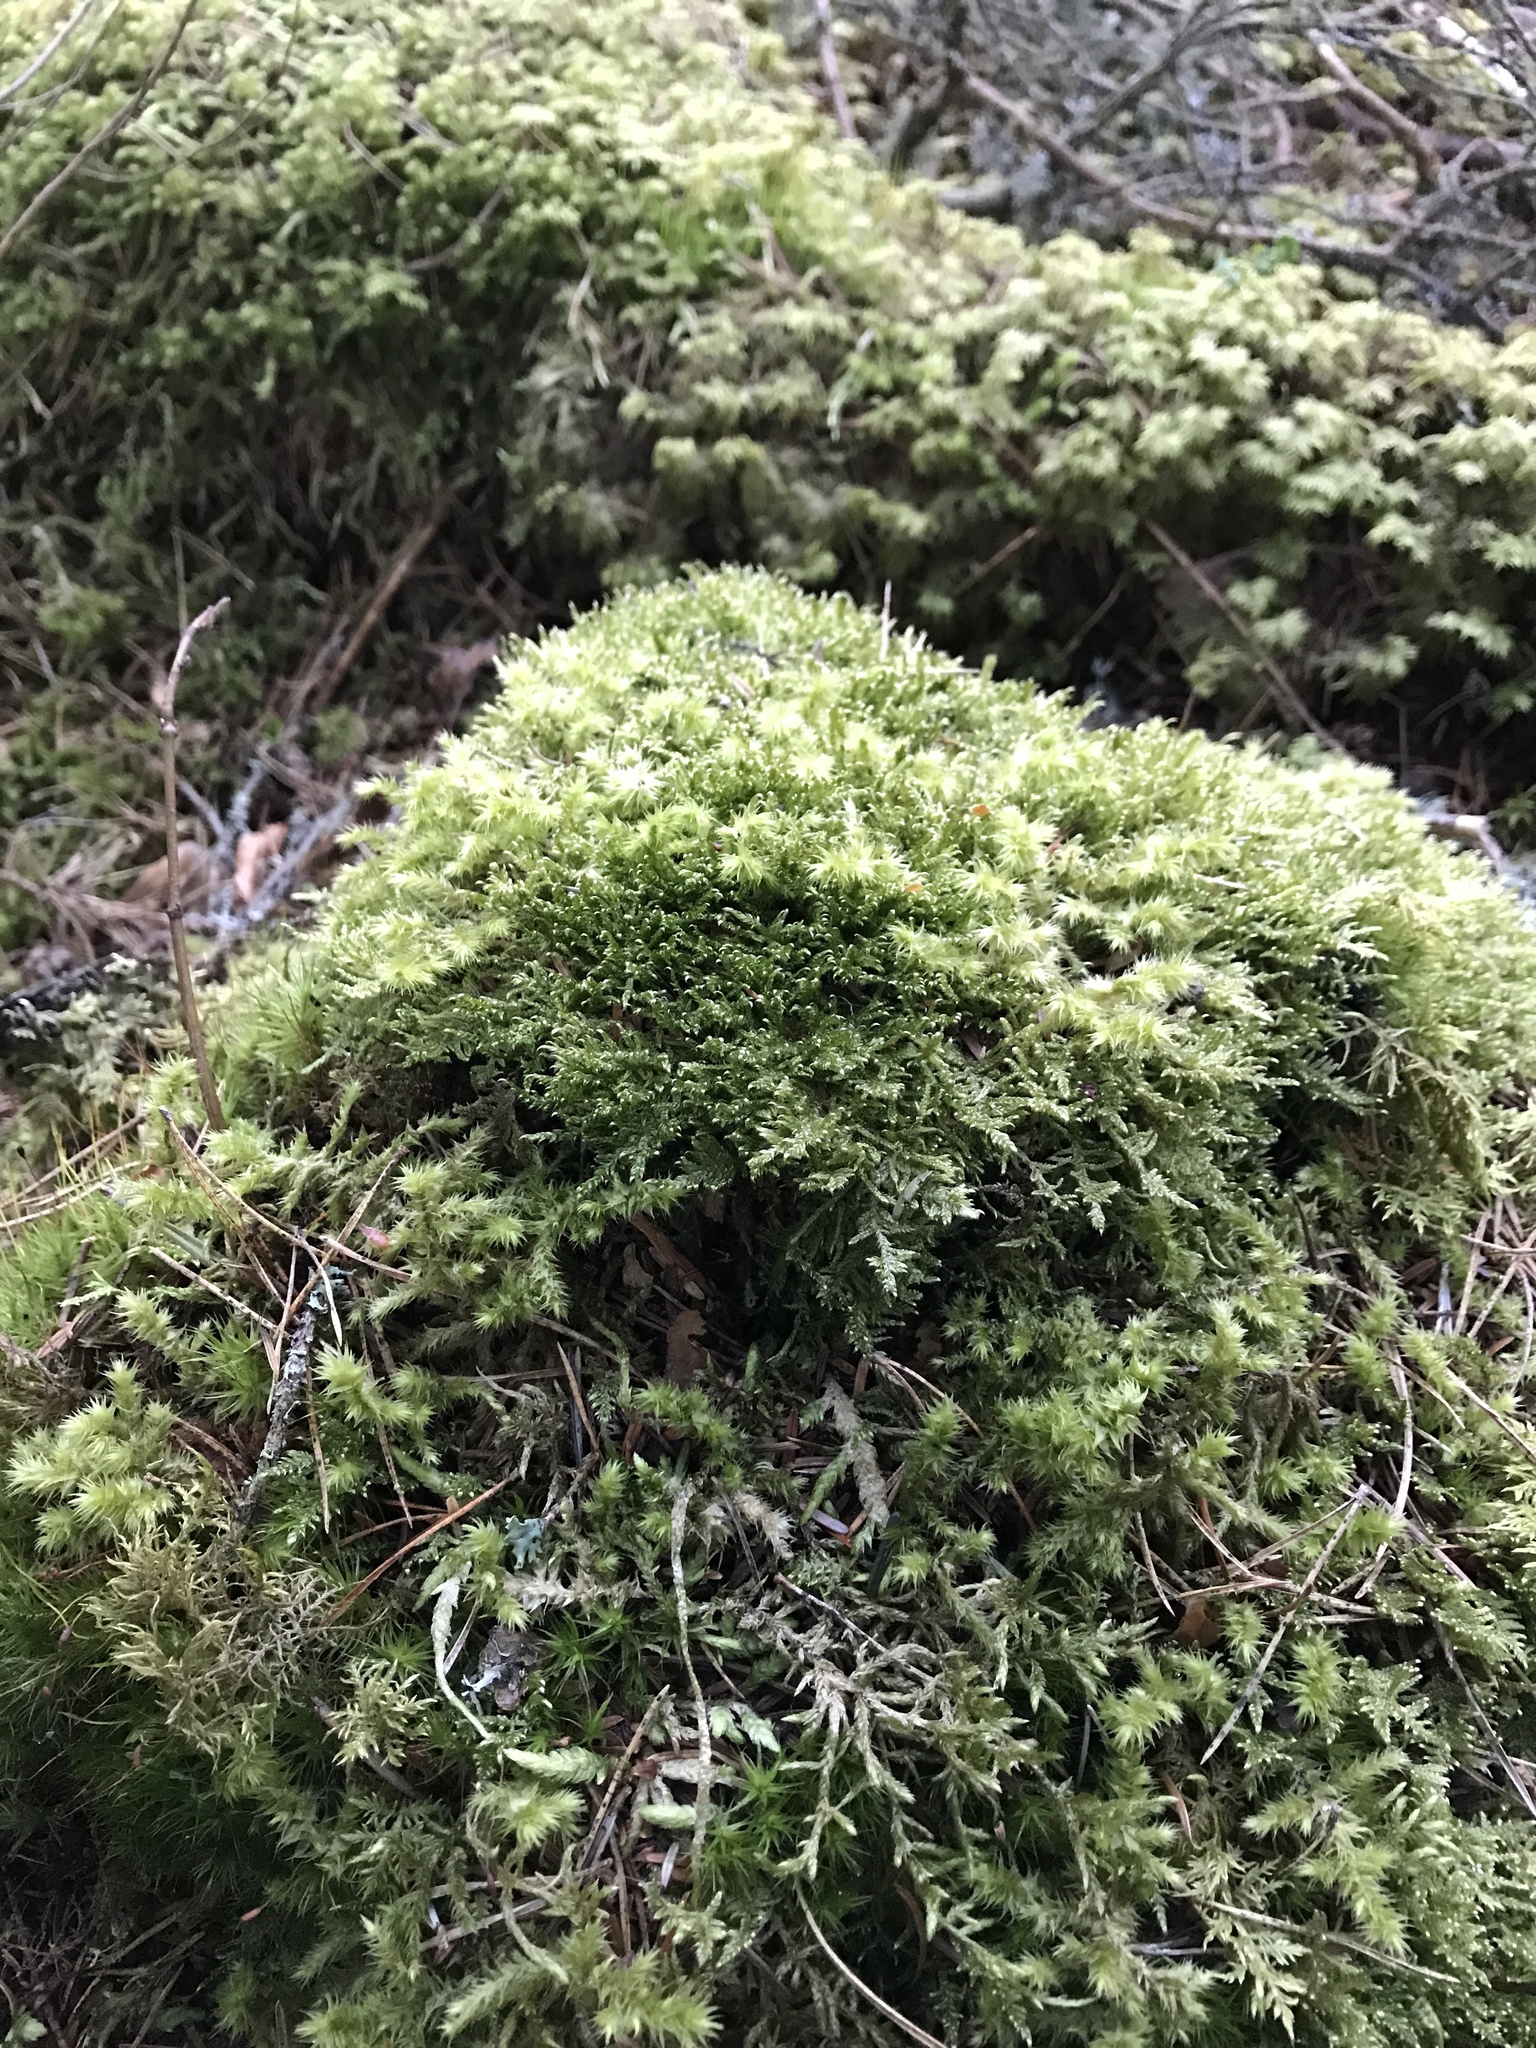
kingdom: Plantae
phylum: Bryophyta
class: Bryopsida
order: Hypnales
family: Hypnaceae
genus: Hypnum
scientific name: Hypnum jutlandicum
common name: Heath plait-moss
